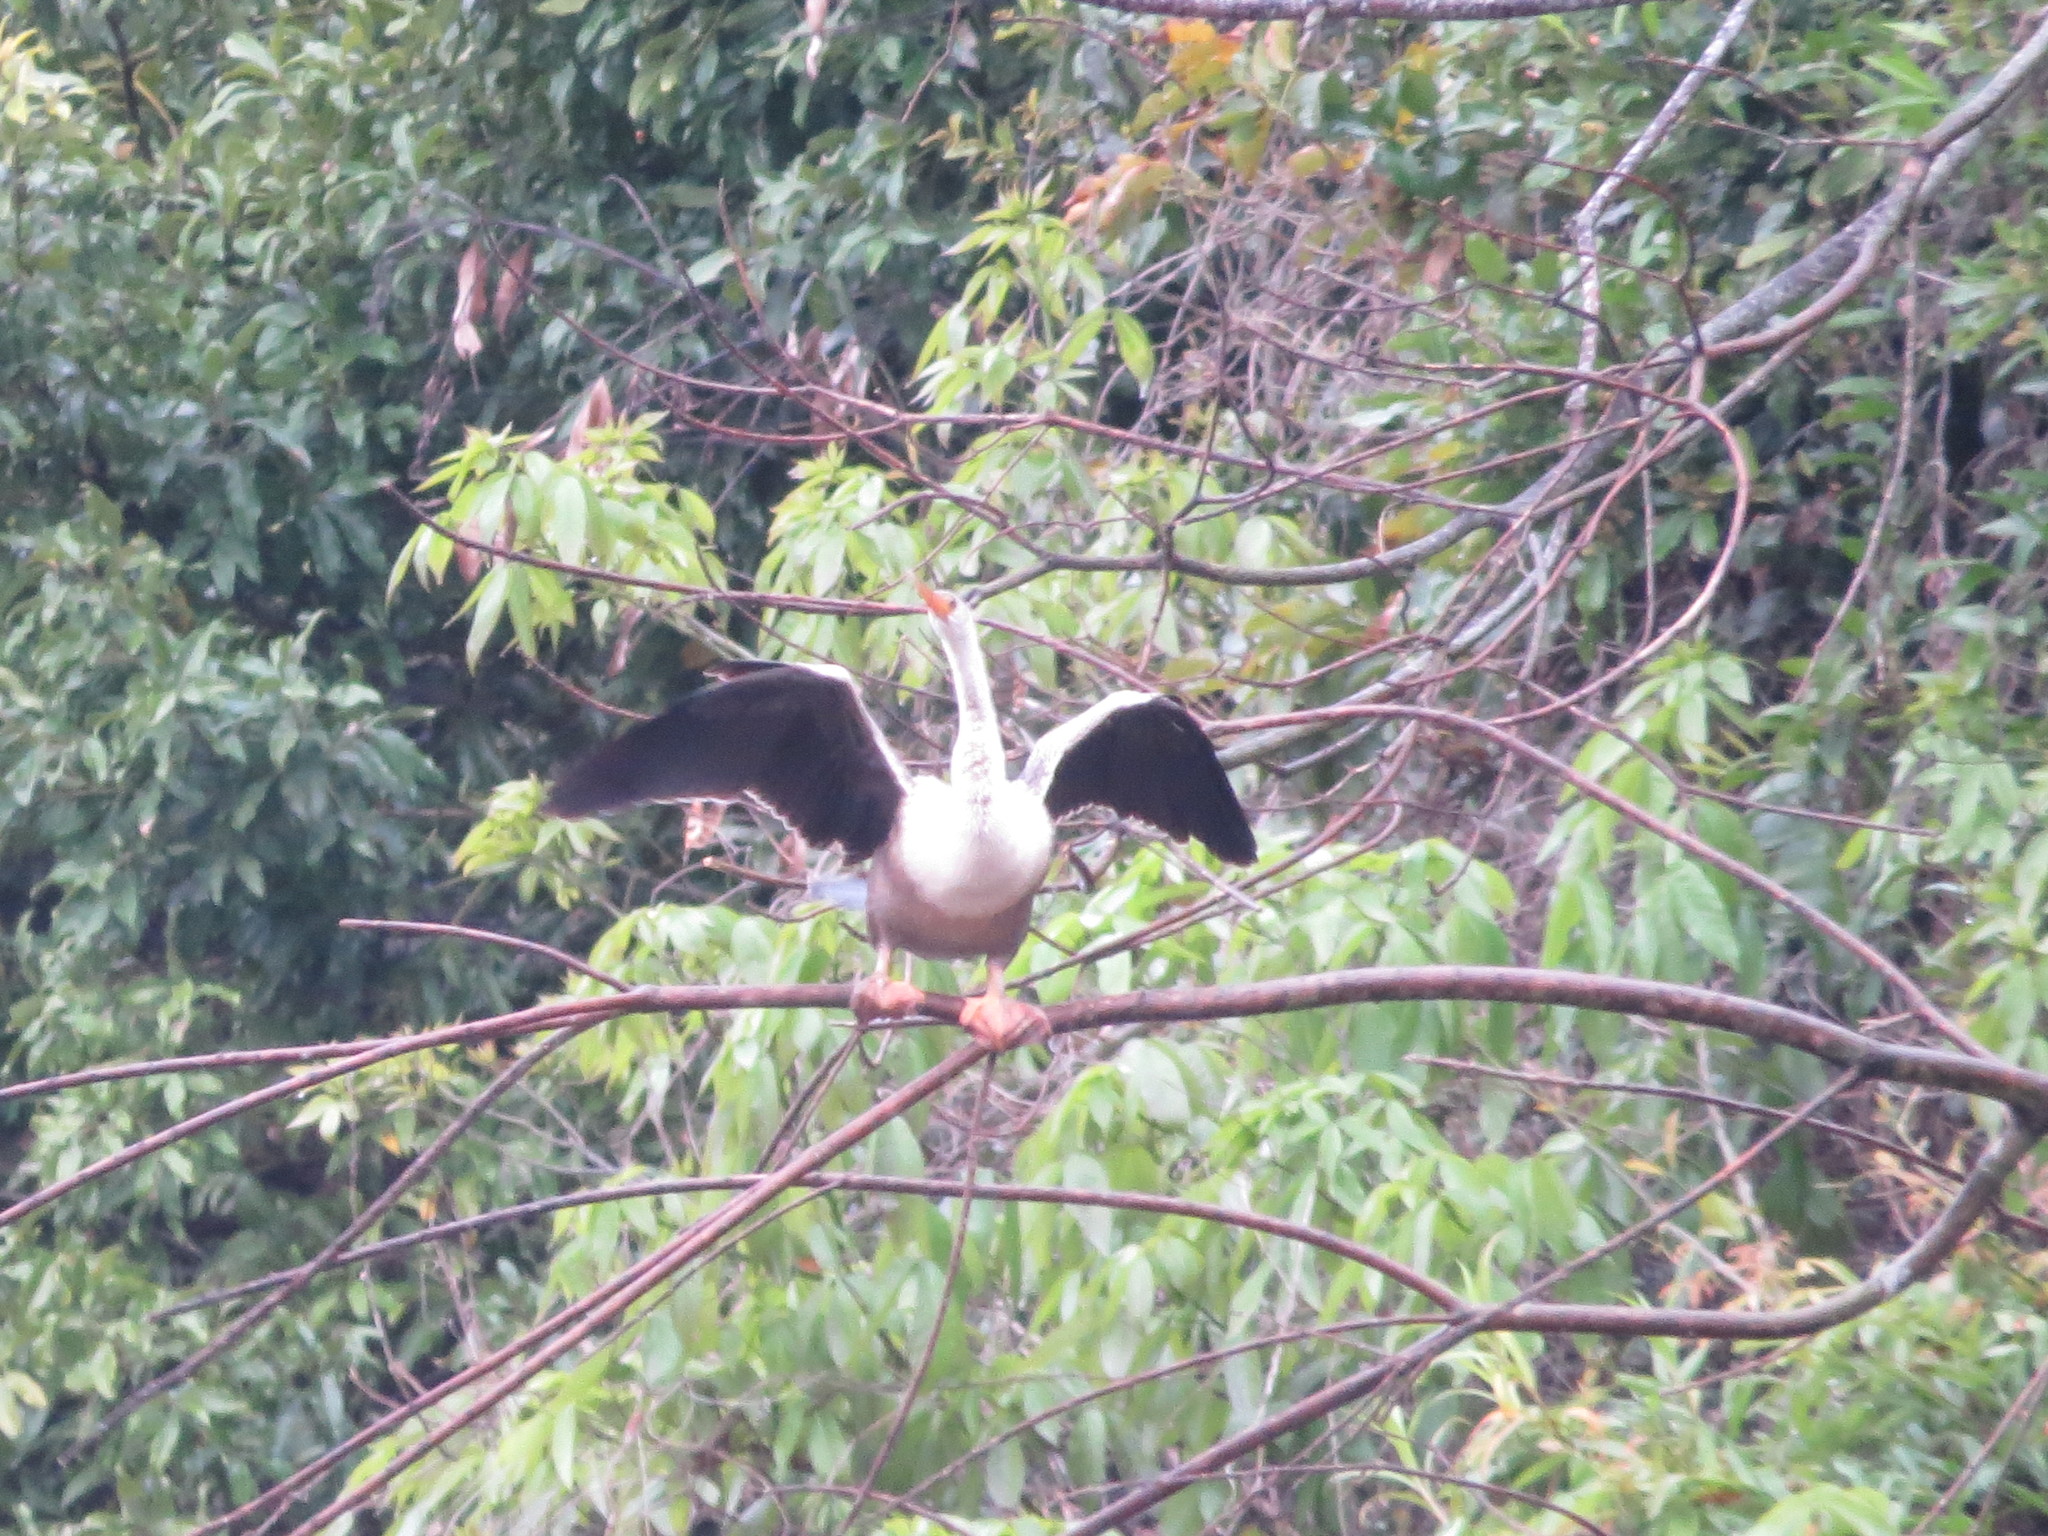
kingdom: Animalia
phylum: Chordata
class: Aves
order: Suliformes
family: Anhingidae
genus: Anhinga
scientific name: Anhinga anhinga
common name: Anhinga
